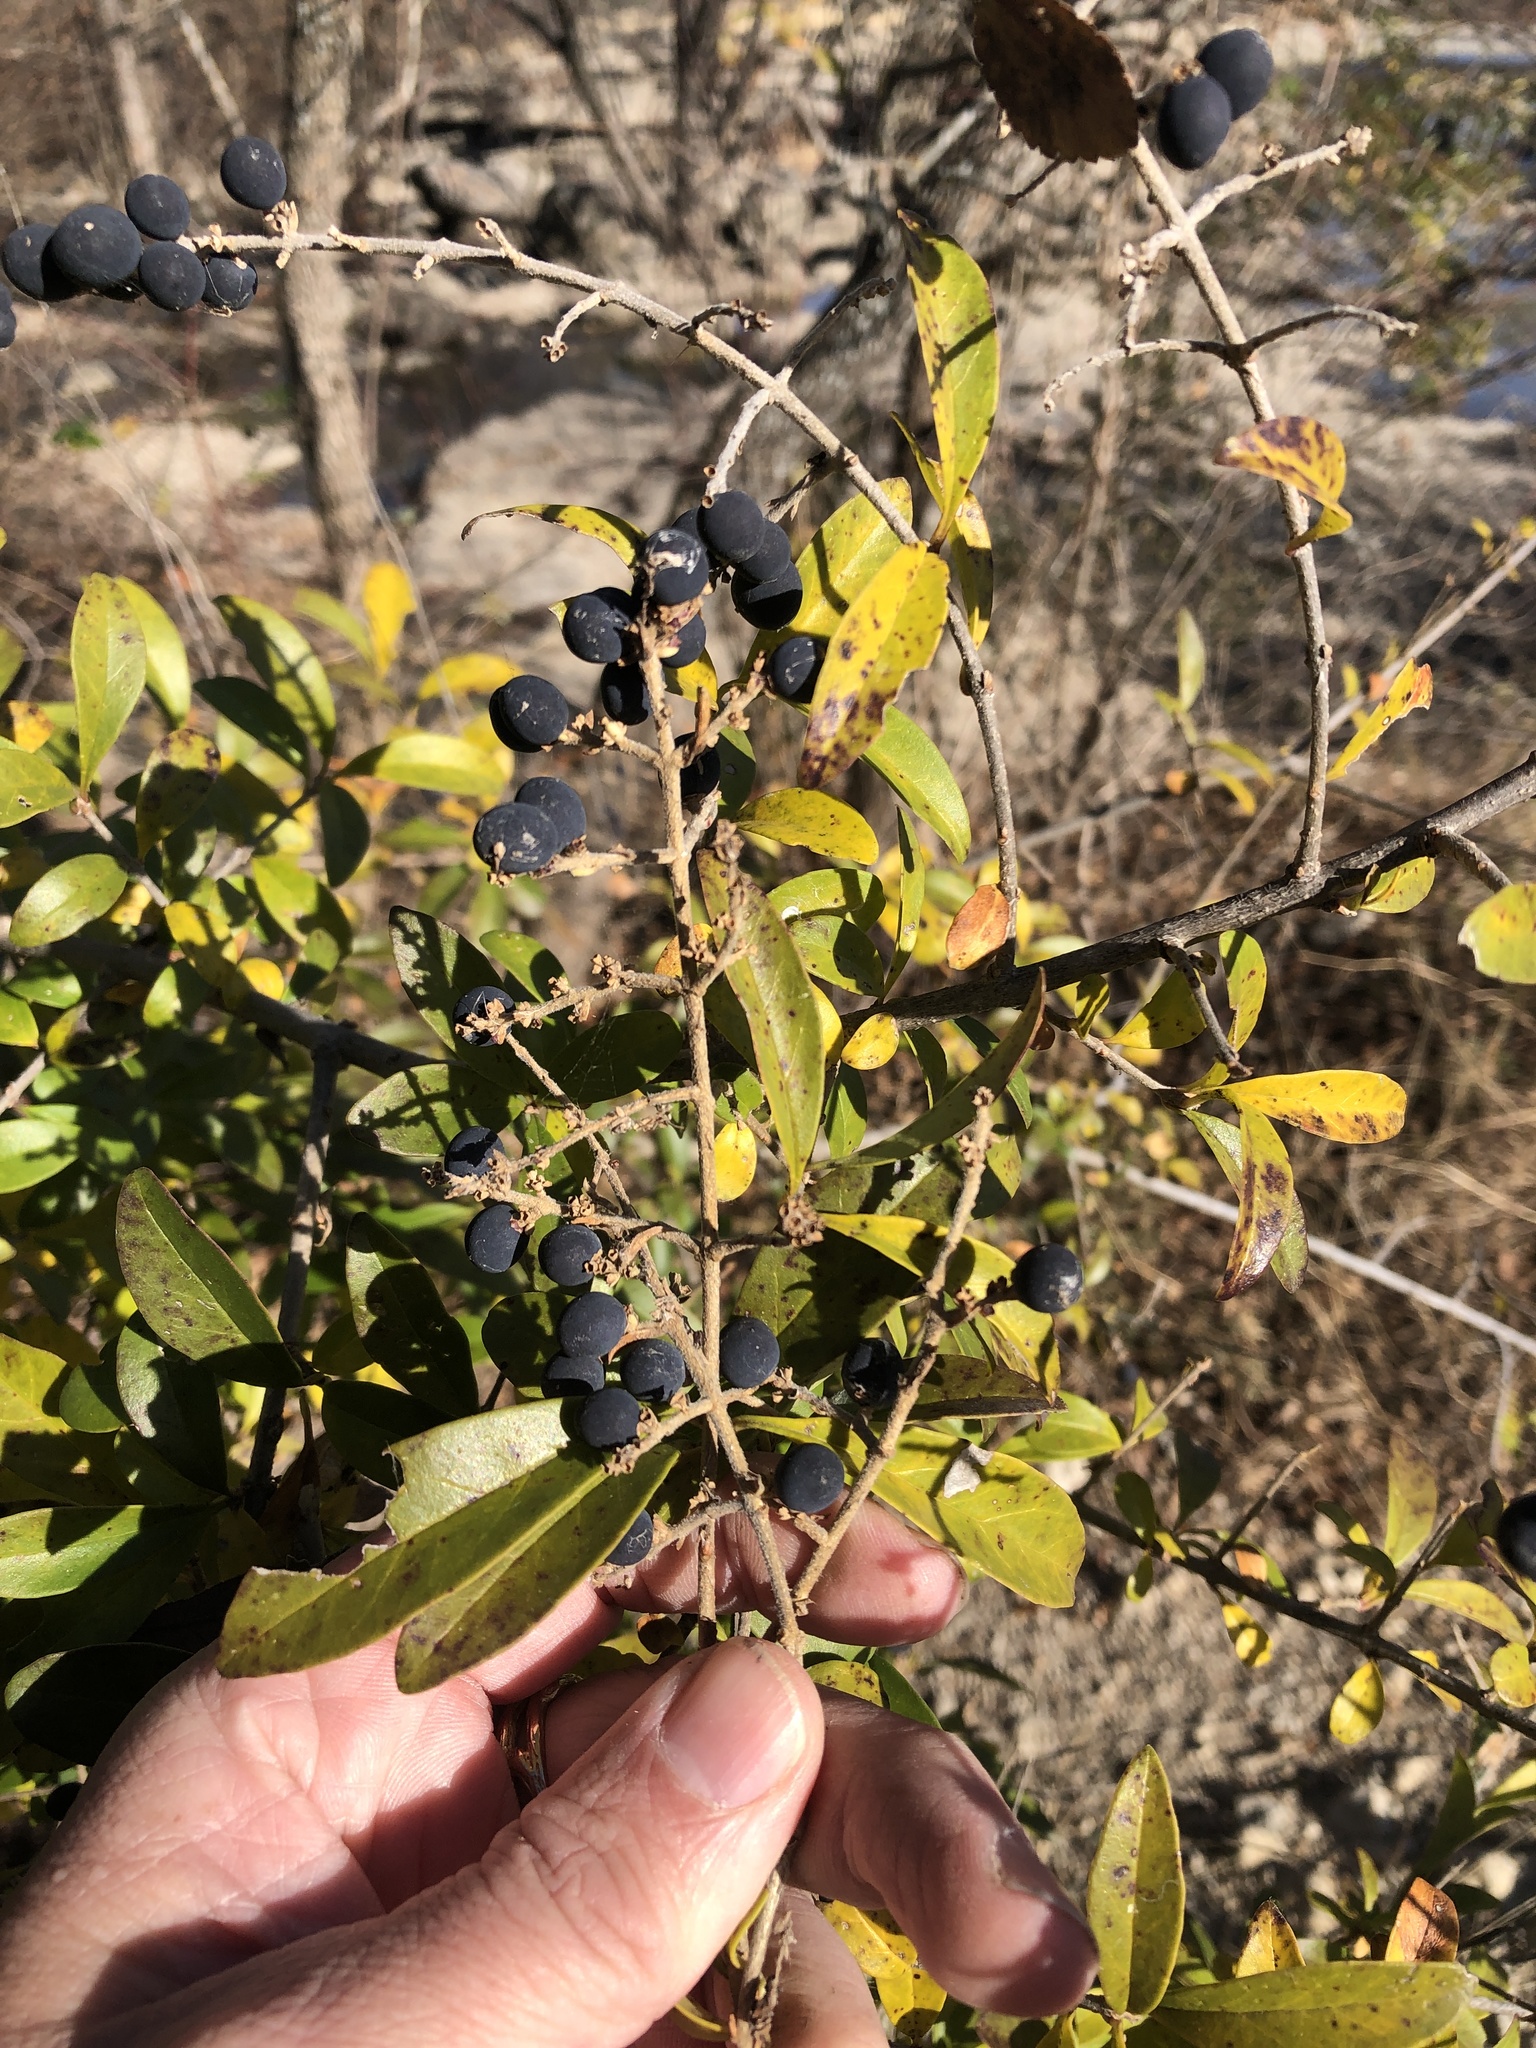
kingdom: Plantae
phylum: Tracheophyta
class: Magnoliopsida
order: Lamiales
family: Oleaceae
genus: Ligustrum
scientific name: Ligustrum quihoui
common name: Waxyleaf privet
